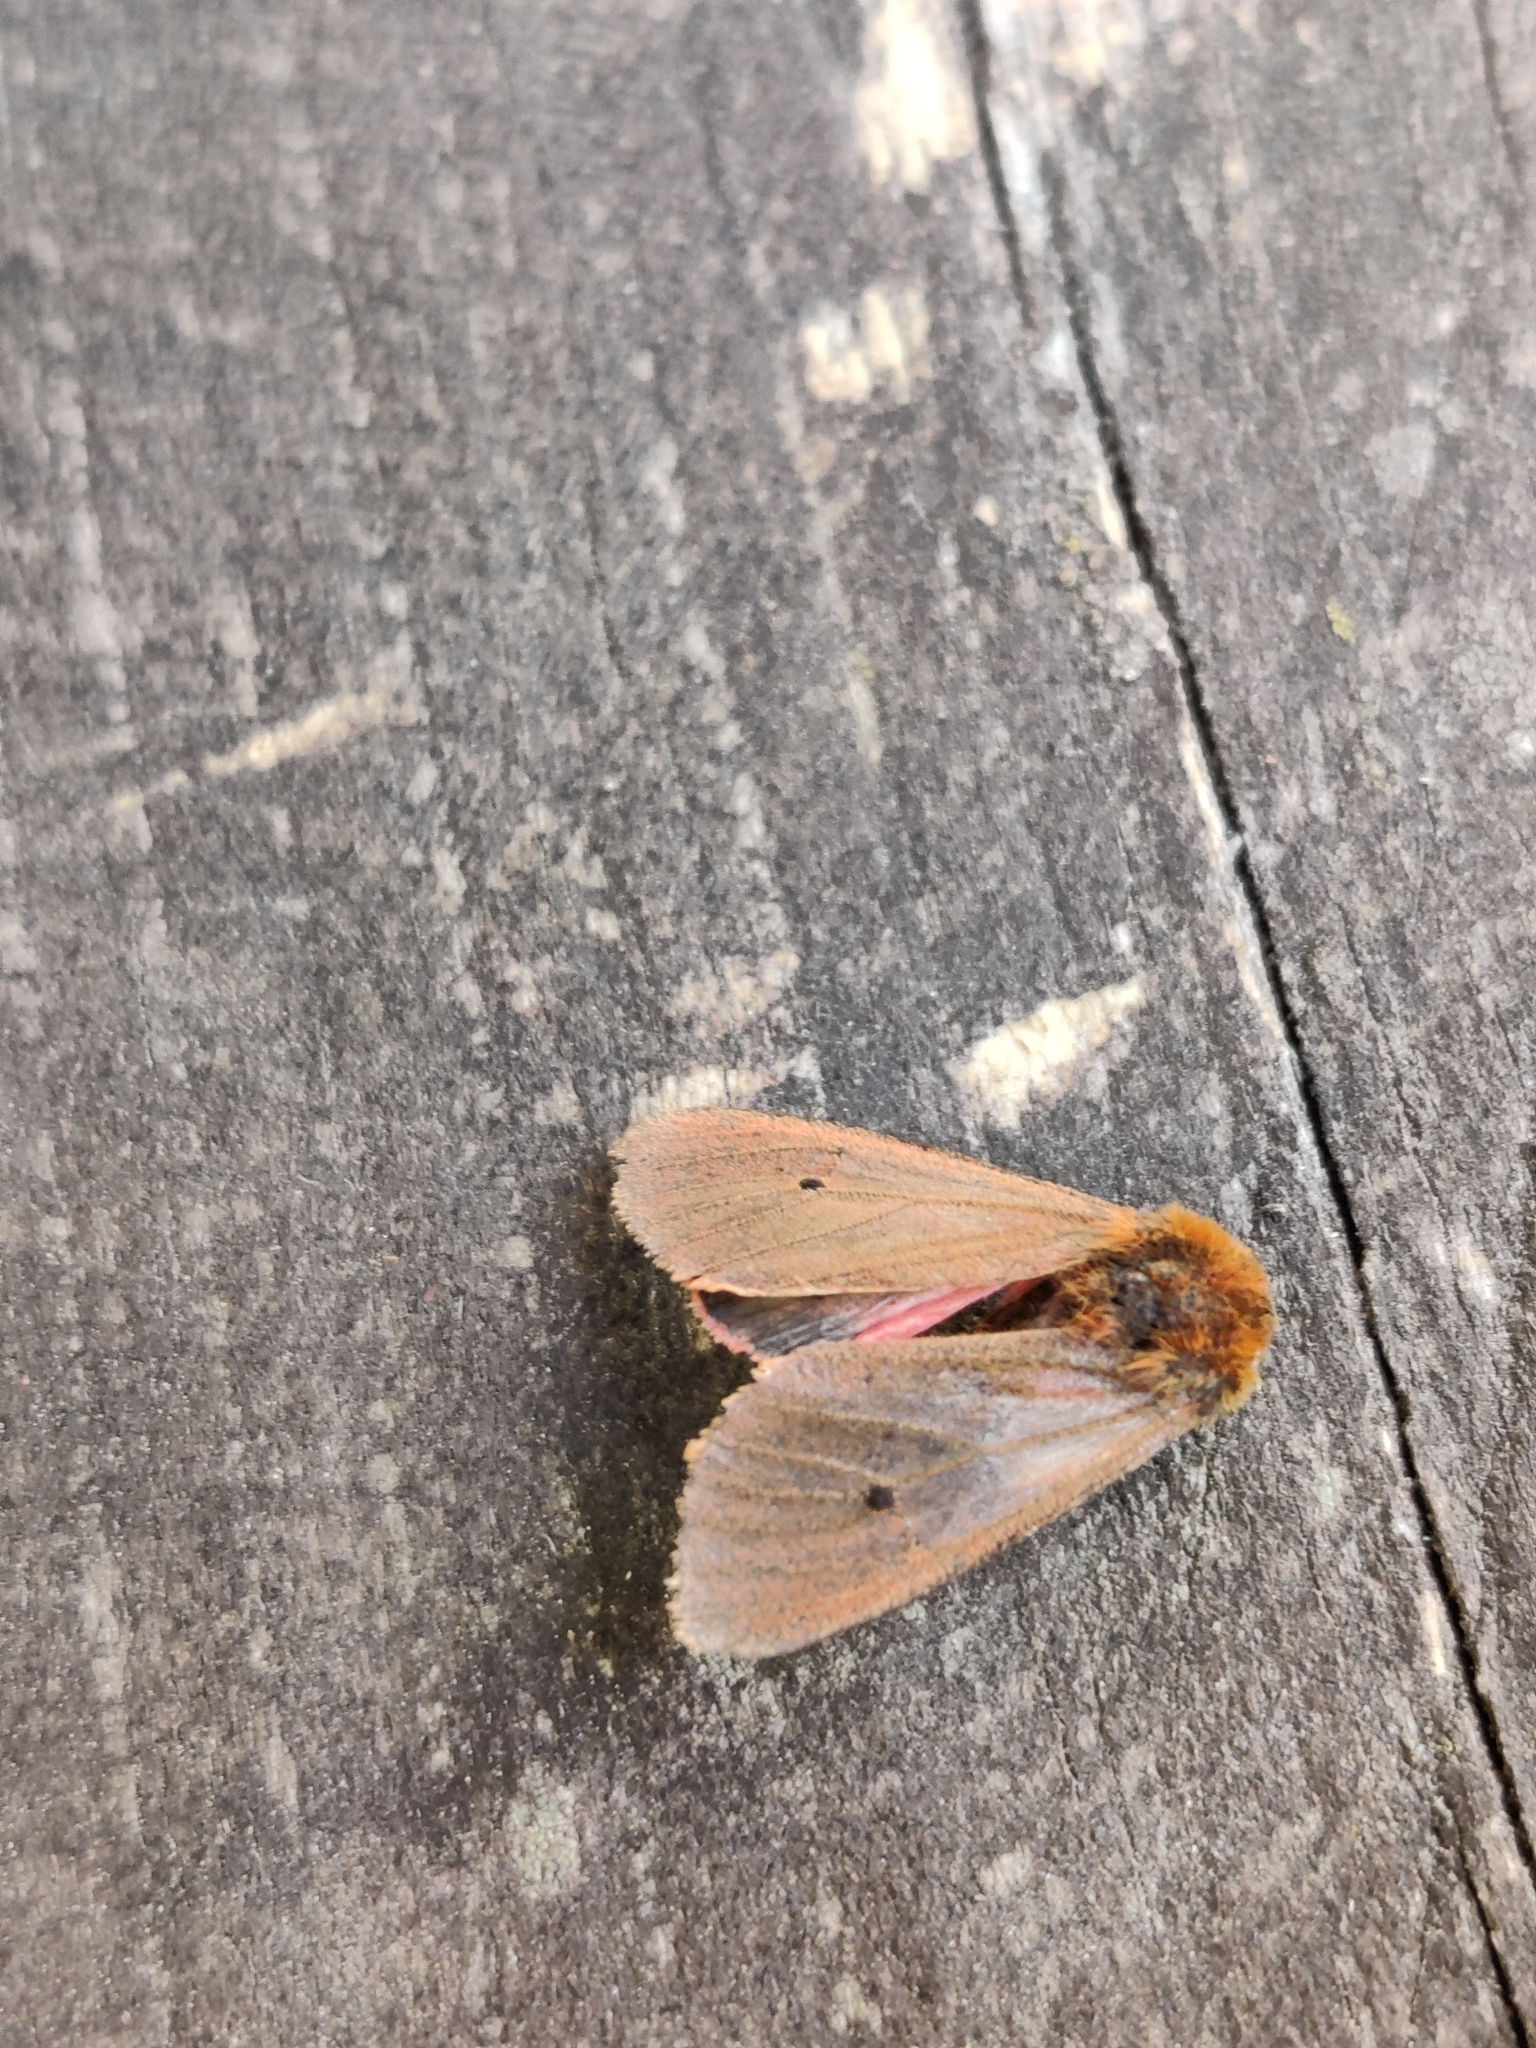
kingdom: Animalia
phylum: Arthropoda
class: Insecta
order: Lepidoptera
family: Erebidae
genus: Phragmatobia
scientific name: Phragmatobia fuliginosa
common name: Ruby tiger
